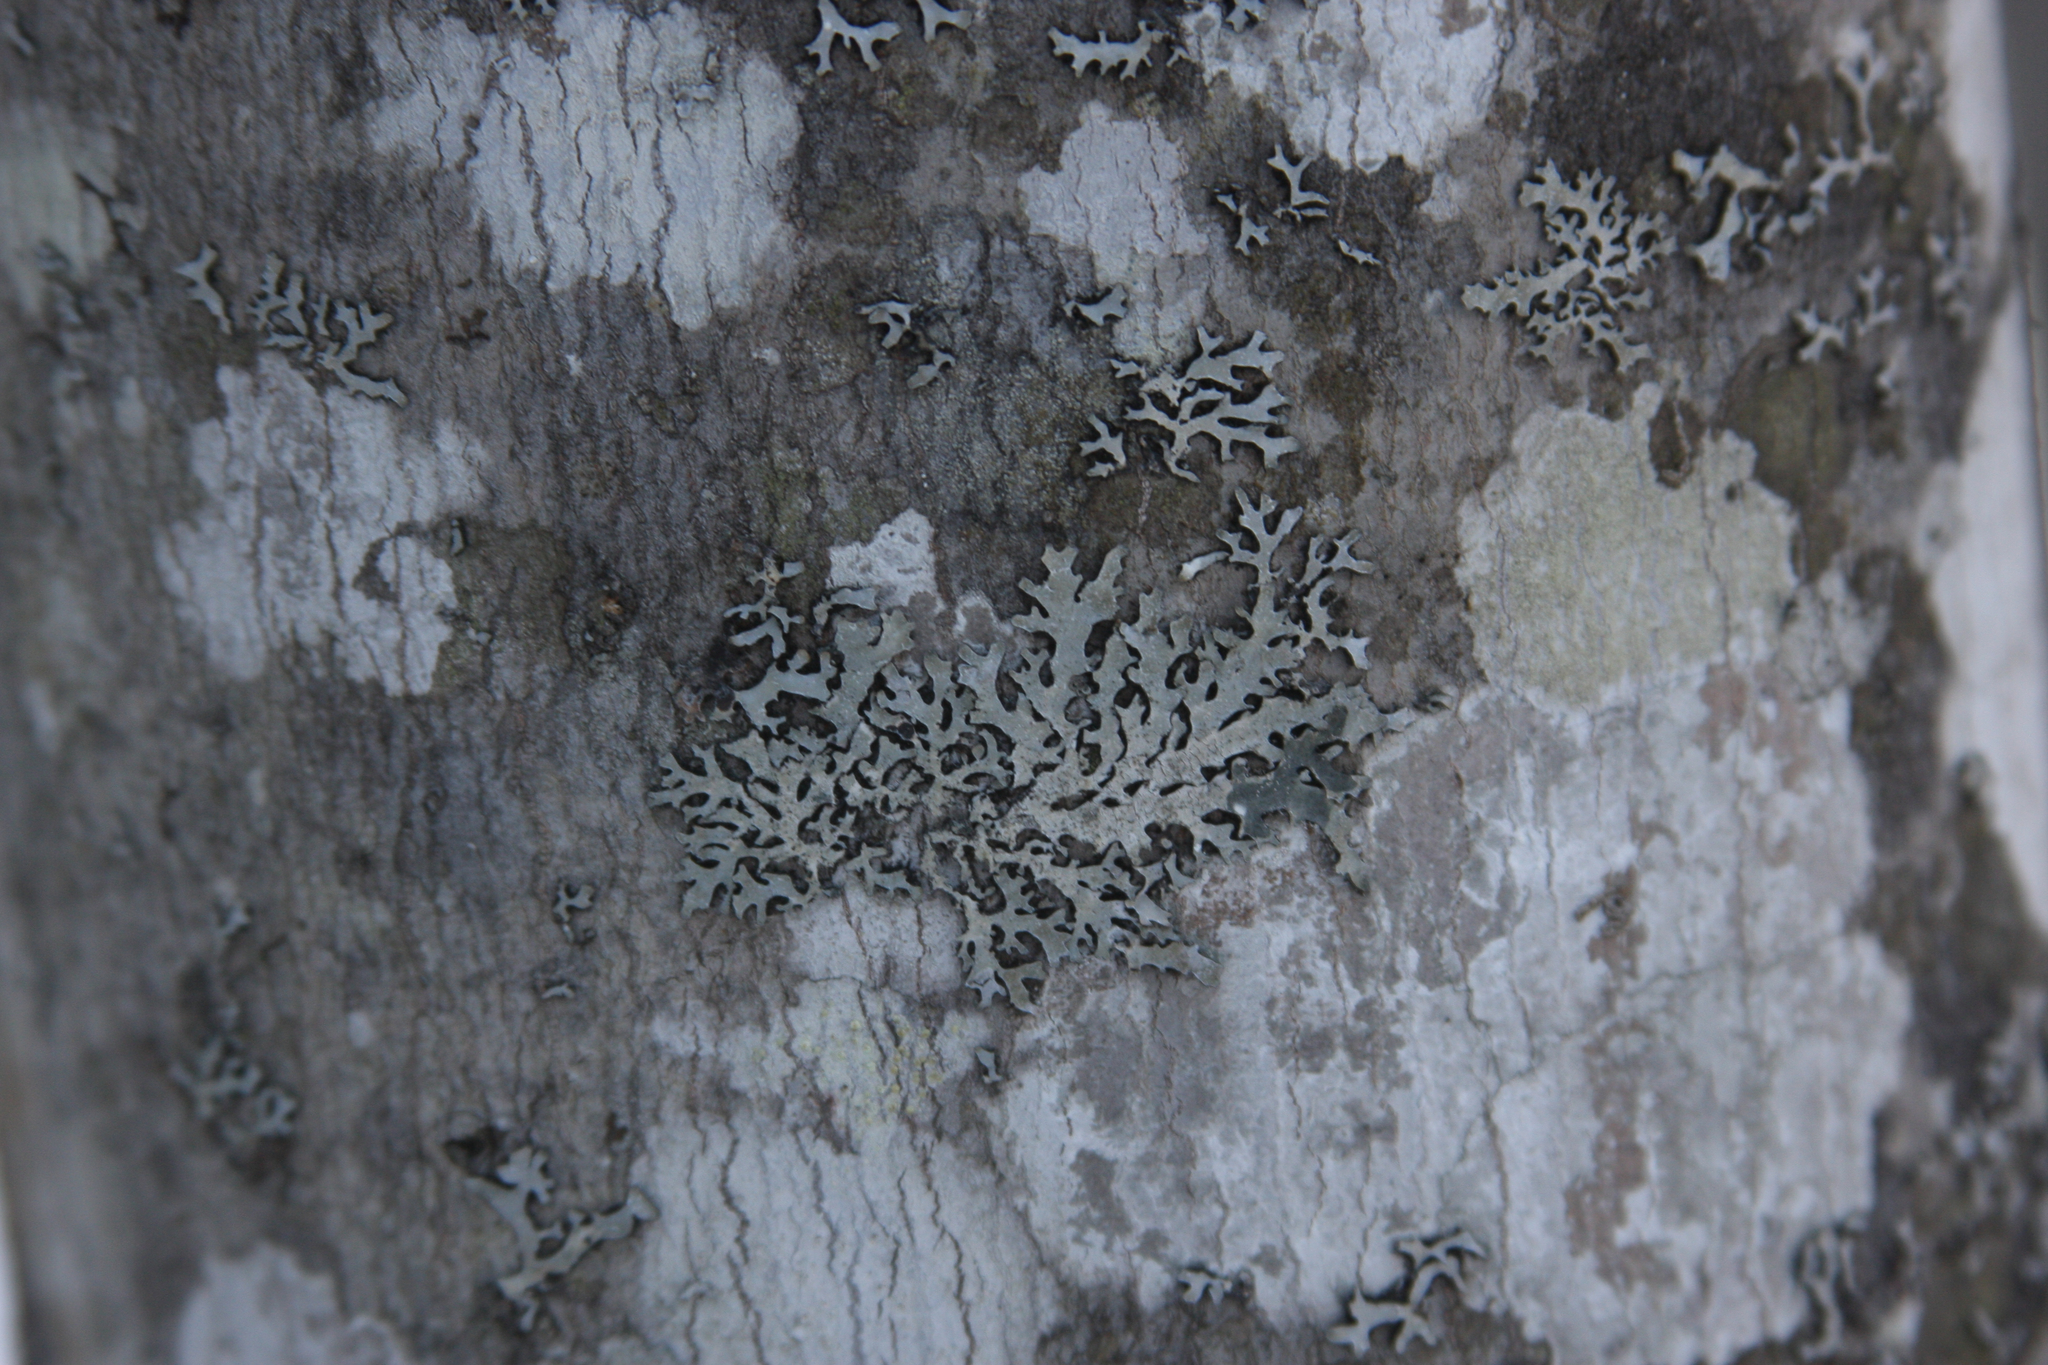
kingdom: Fungi
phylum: Ascomycota
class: Lecanoromycetes
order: Lecanorales
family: Parmeliaceae
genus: Parmelia
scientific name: Parmelia sulcata
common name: Netted shield lichen
